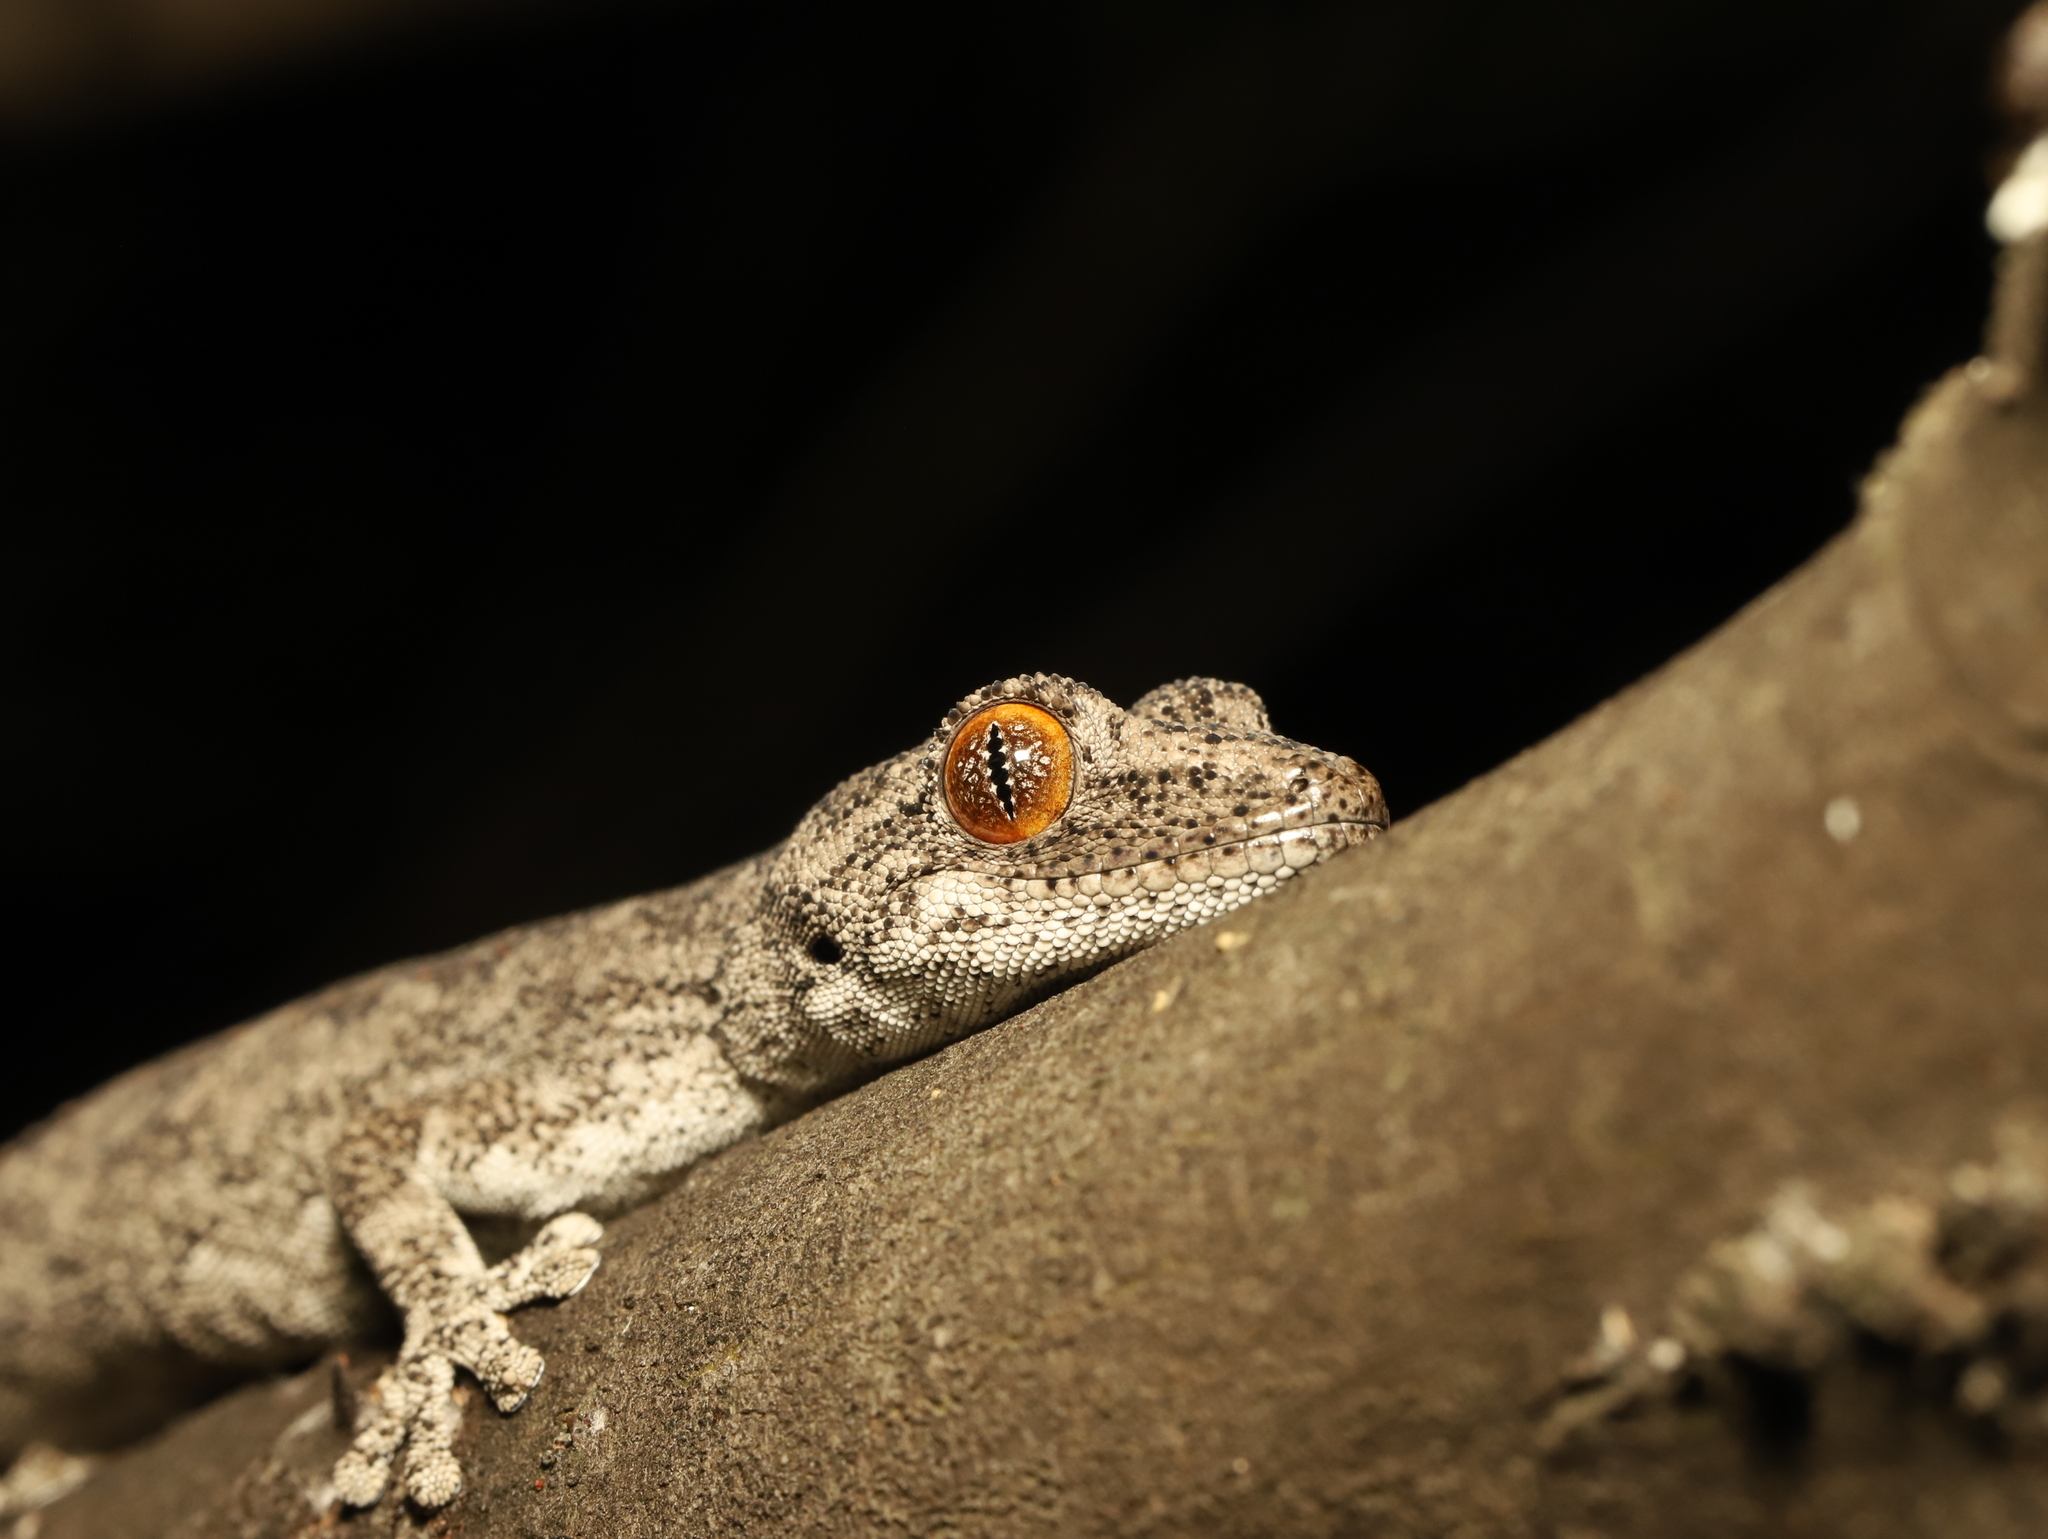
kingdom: Animalia
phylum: Chordata
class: Squamata
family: Diplodactylidae
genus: Strophurus
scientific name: Strophurus intermedius
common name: Eastern spiny-tailed gecko
